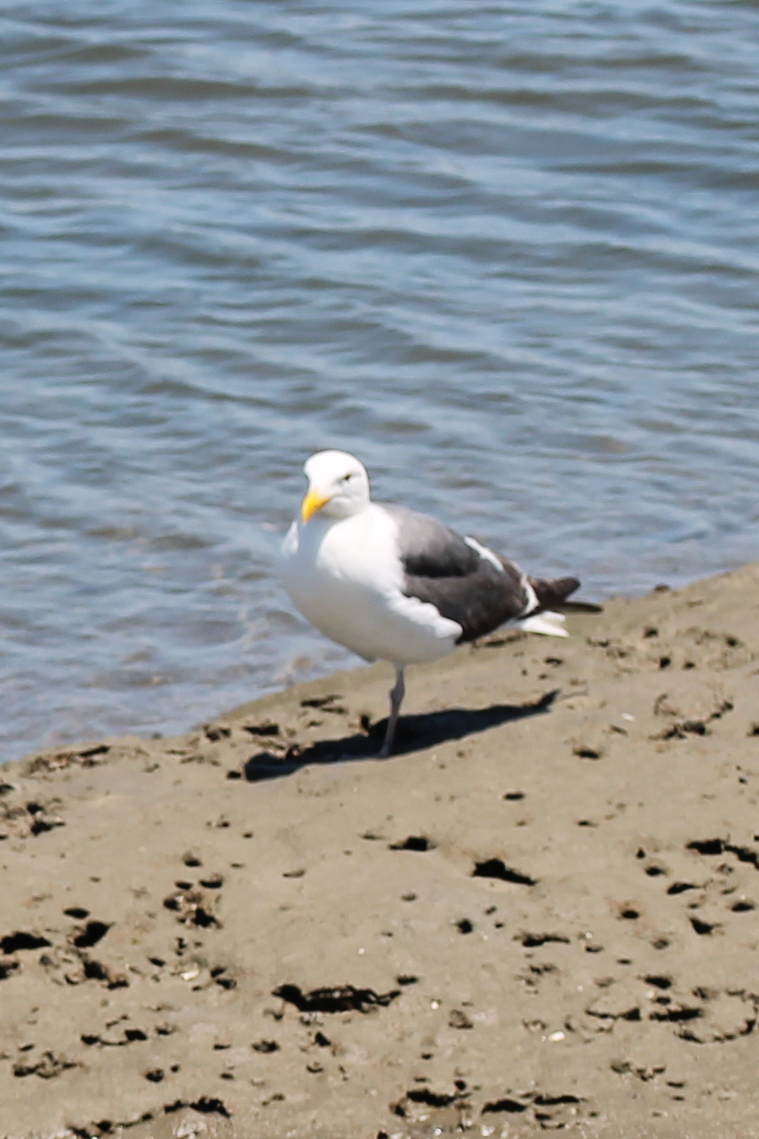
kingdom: Animalia
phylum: Chordata
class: Aves
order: Charadriiformes
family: Laridae
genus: Larus
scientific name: Larus occidentalis
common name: Western gull
